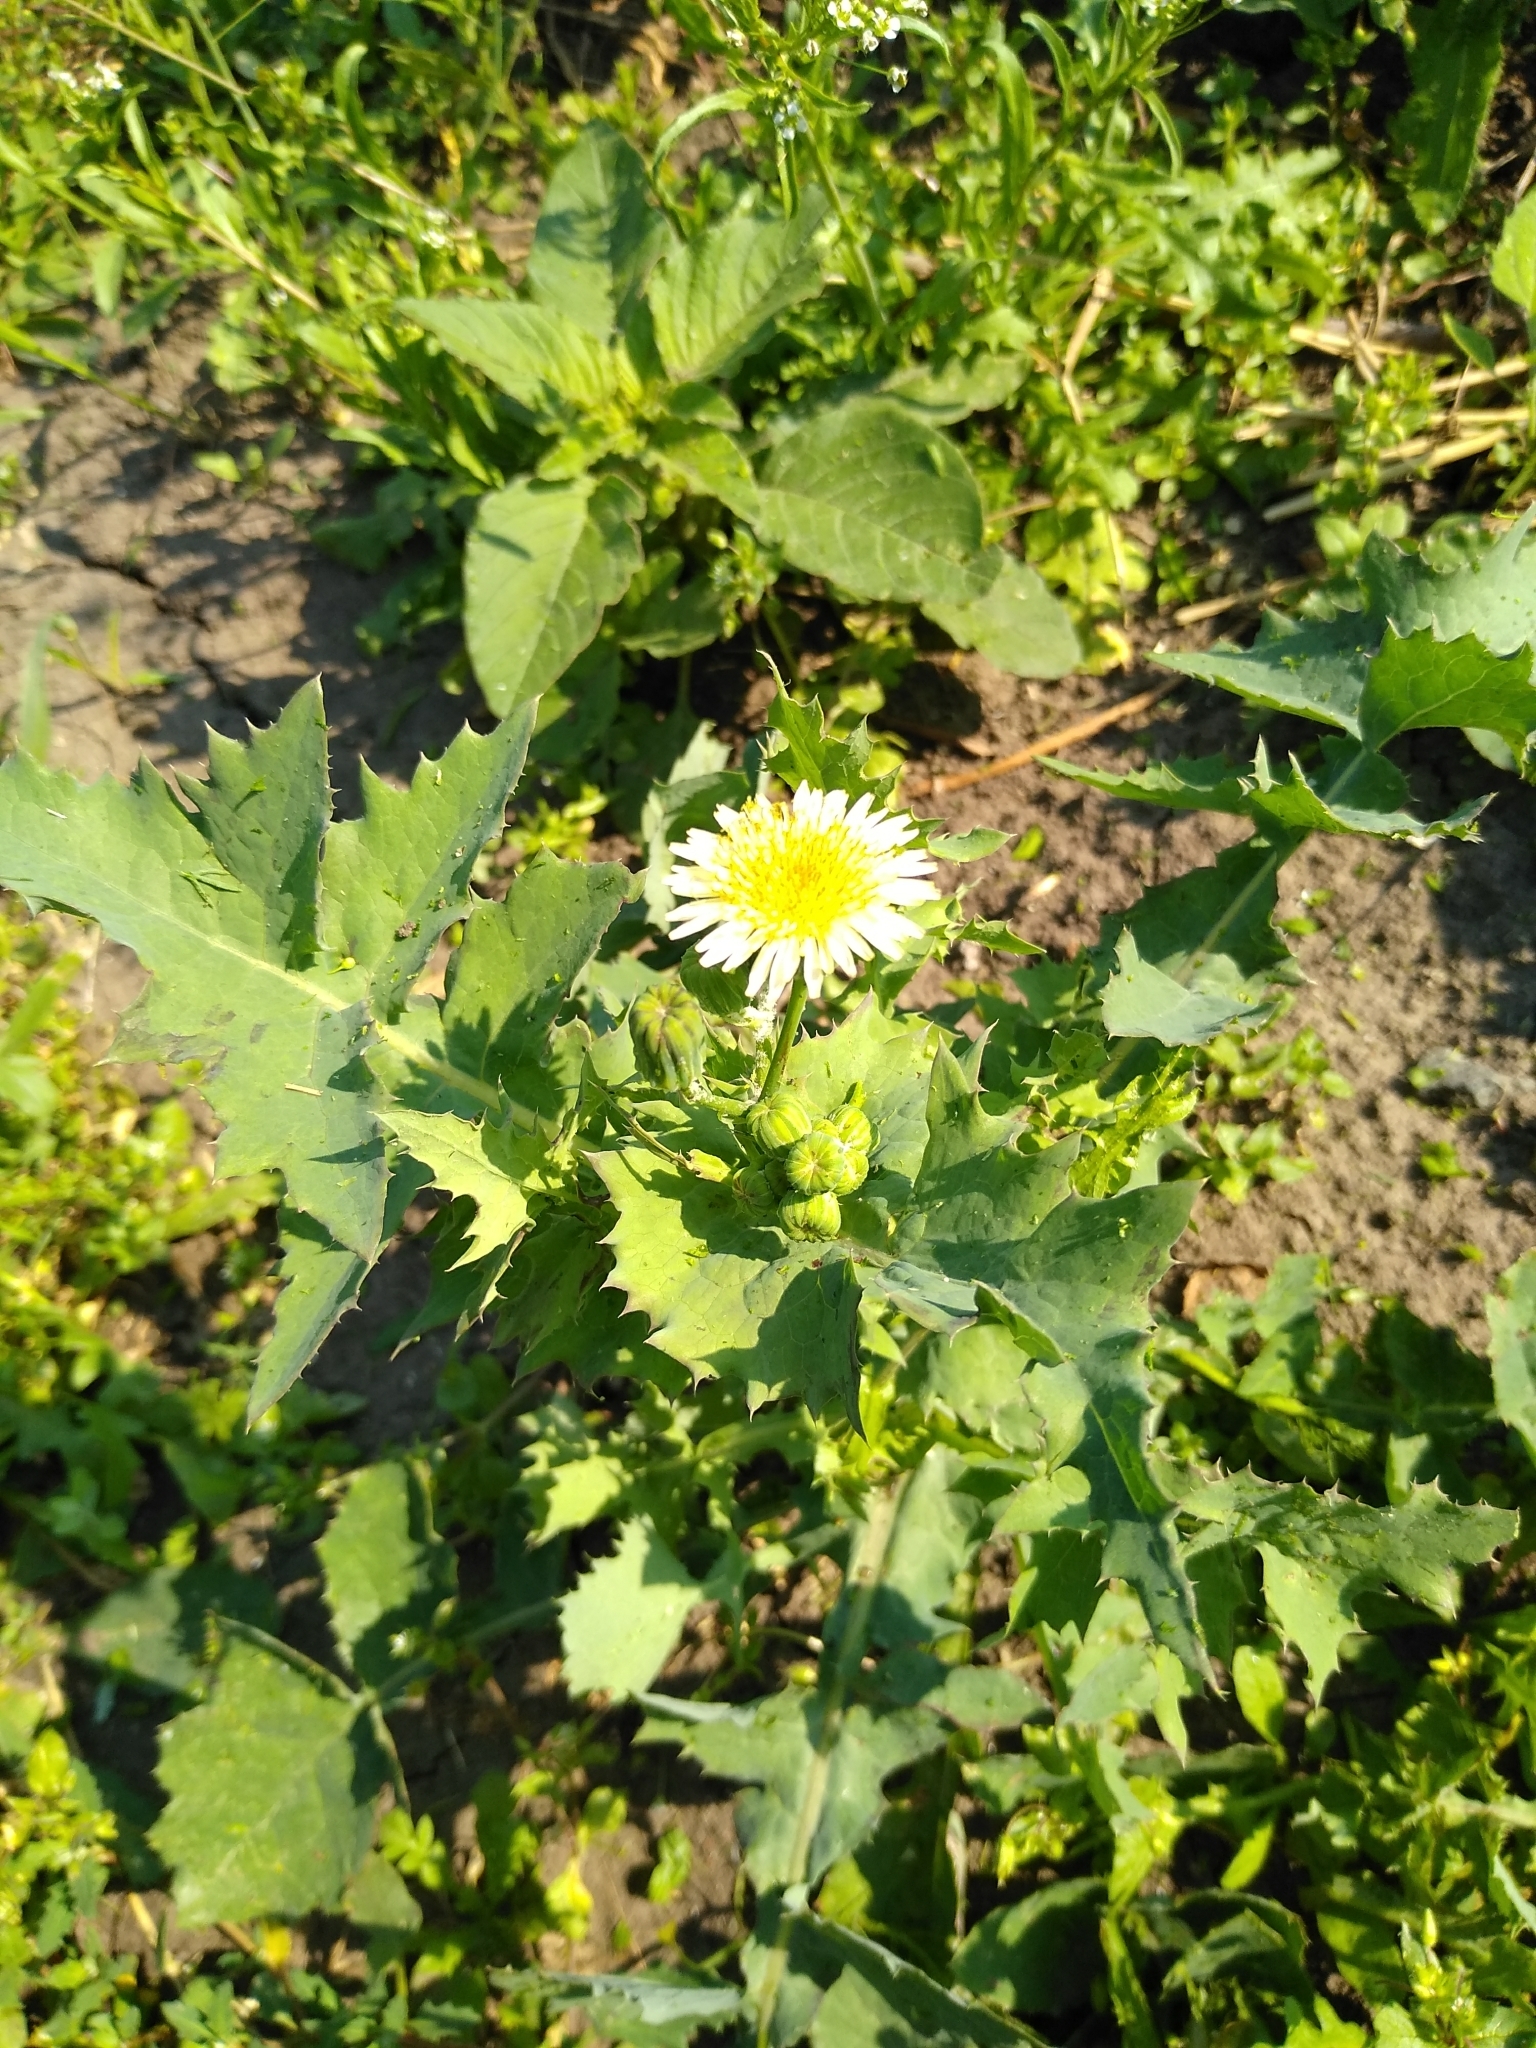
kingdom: Plantae
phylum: Tracheophyta
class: Magnoliopsida
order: Asterales
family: Asteraceae
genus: Sonchus
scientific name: Sonchus oleraceus
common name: Common sowthistle
